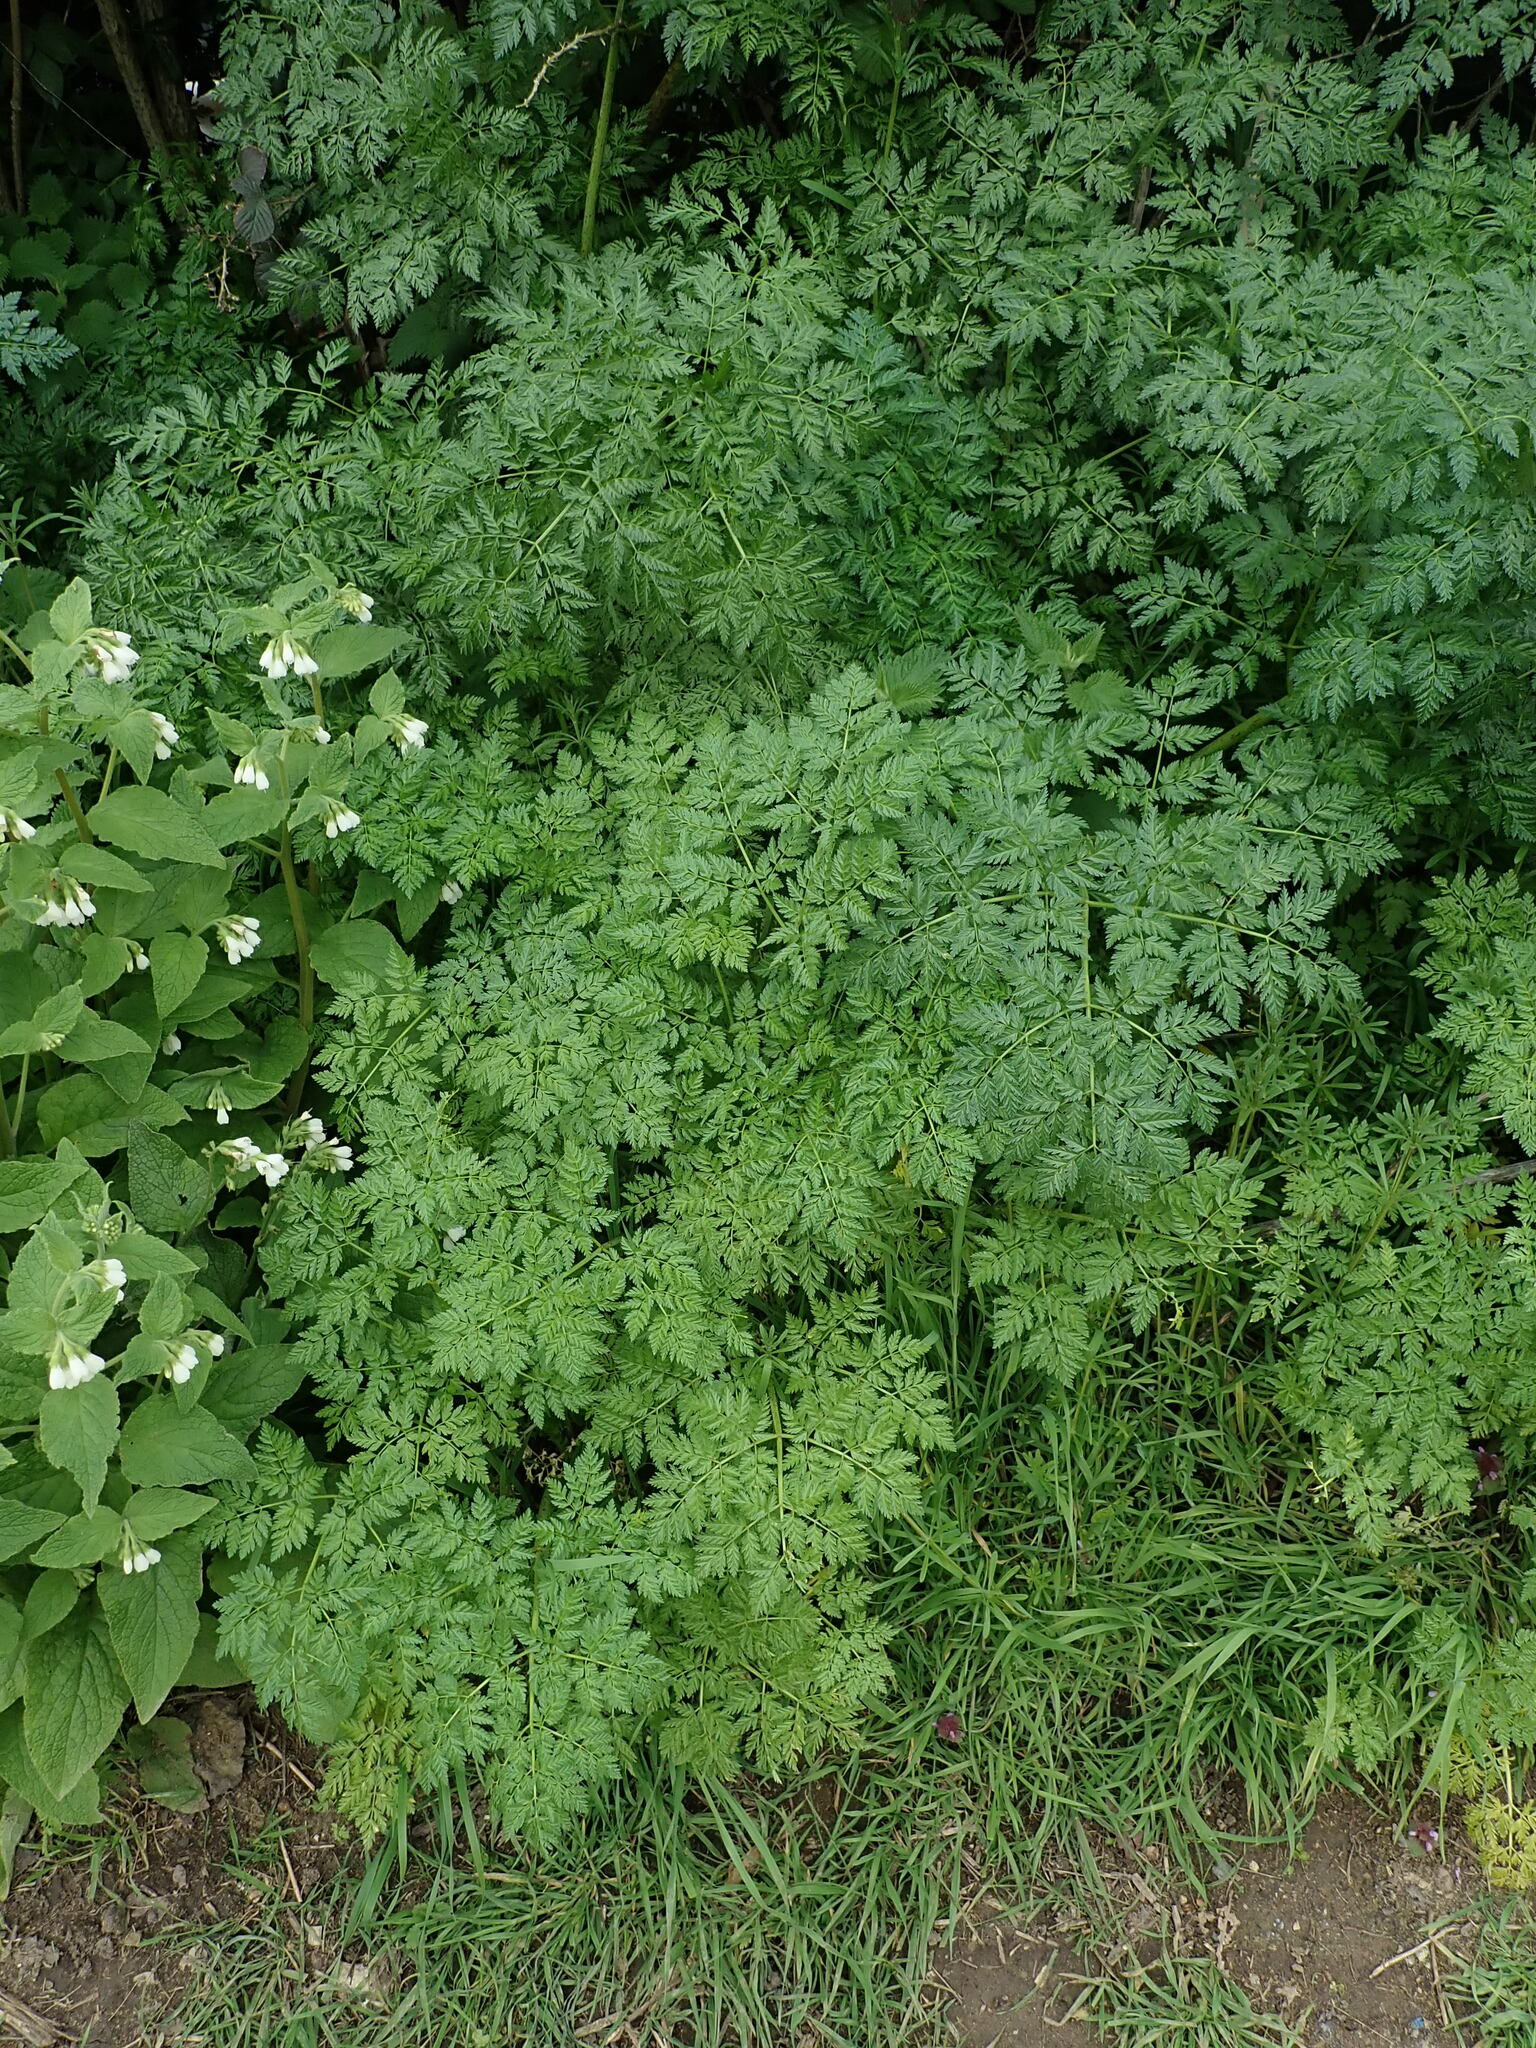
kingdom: Plantae
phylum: Tracheophyta
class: Magnoliopsida
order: Apiales
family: Apiaceae
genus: Conium
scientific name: Conium maculatum
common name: Hemlock
